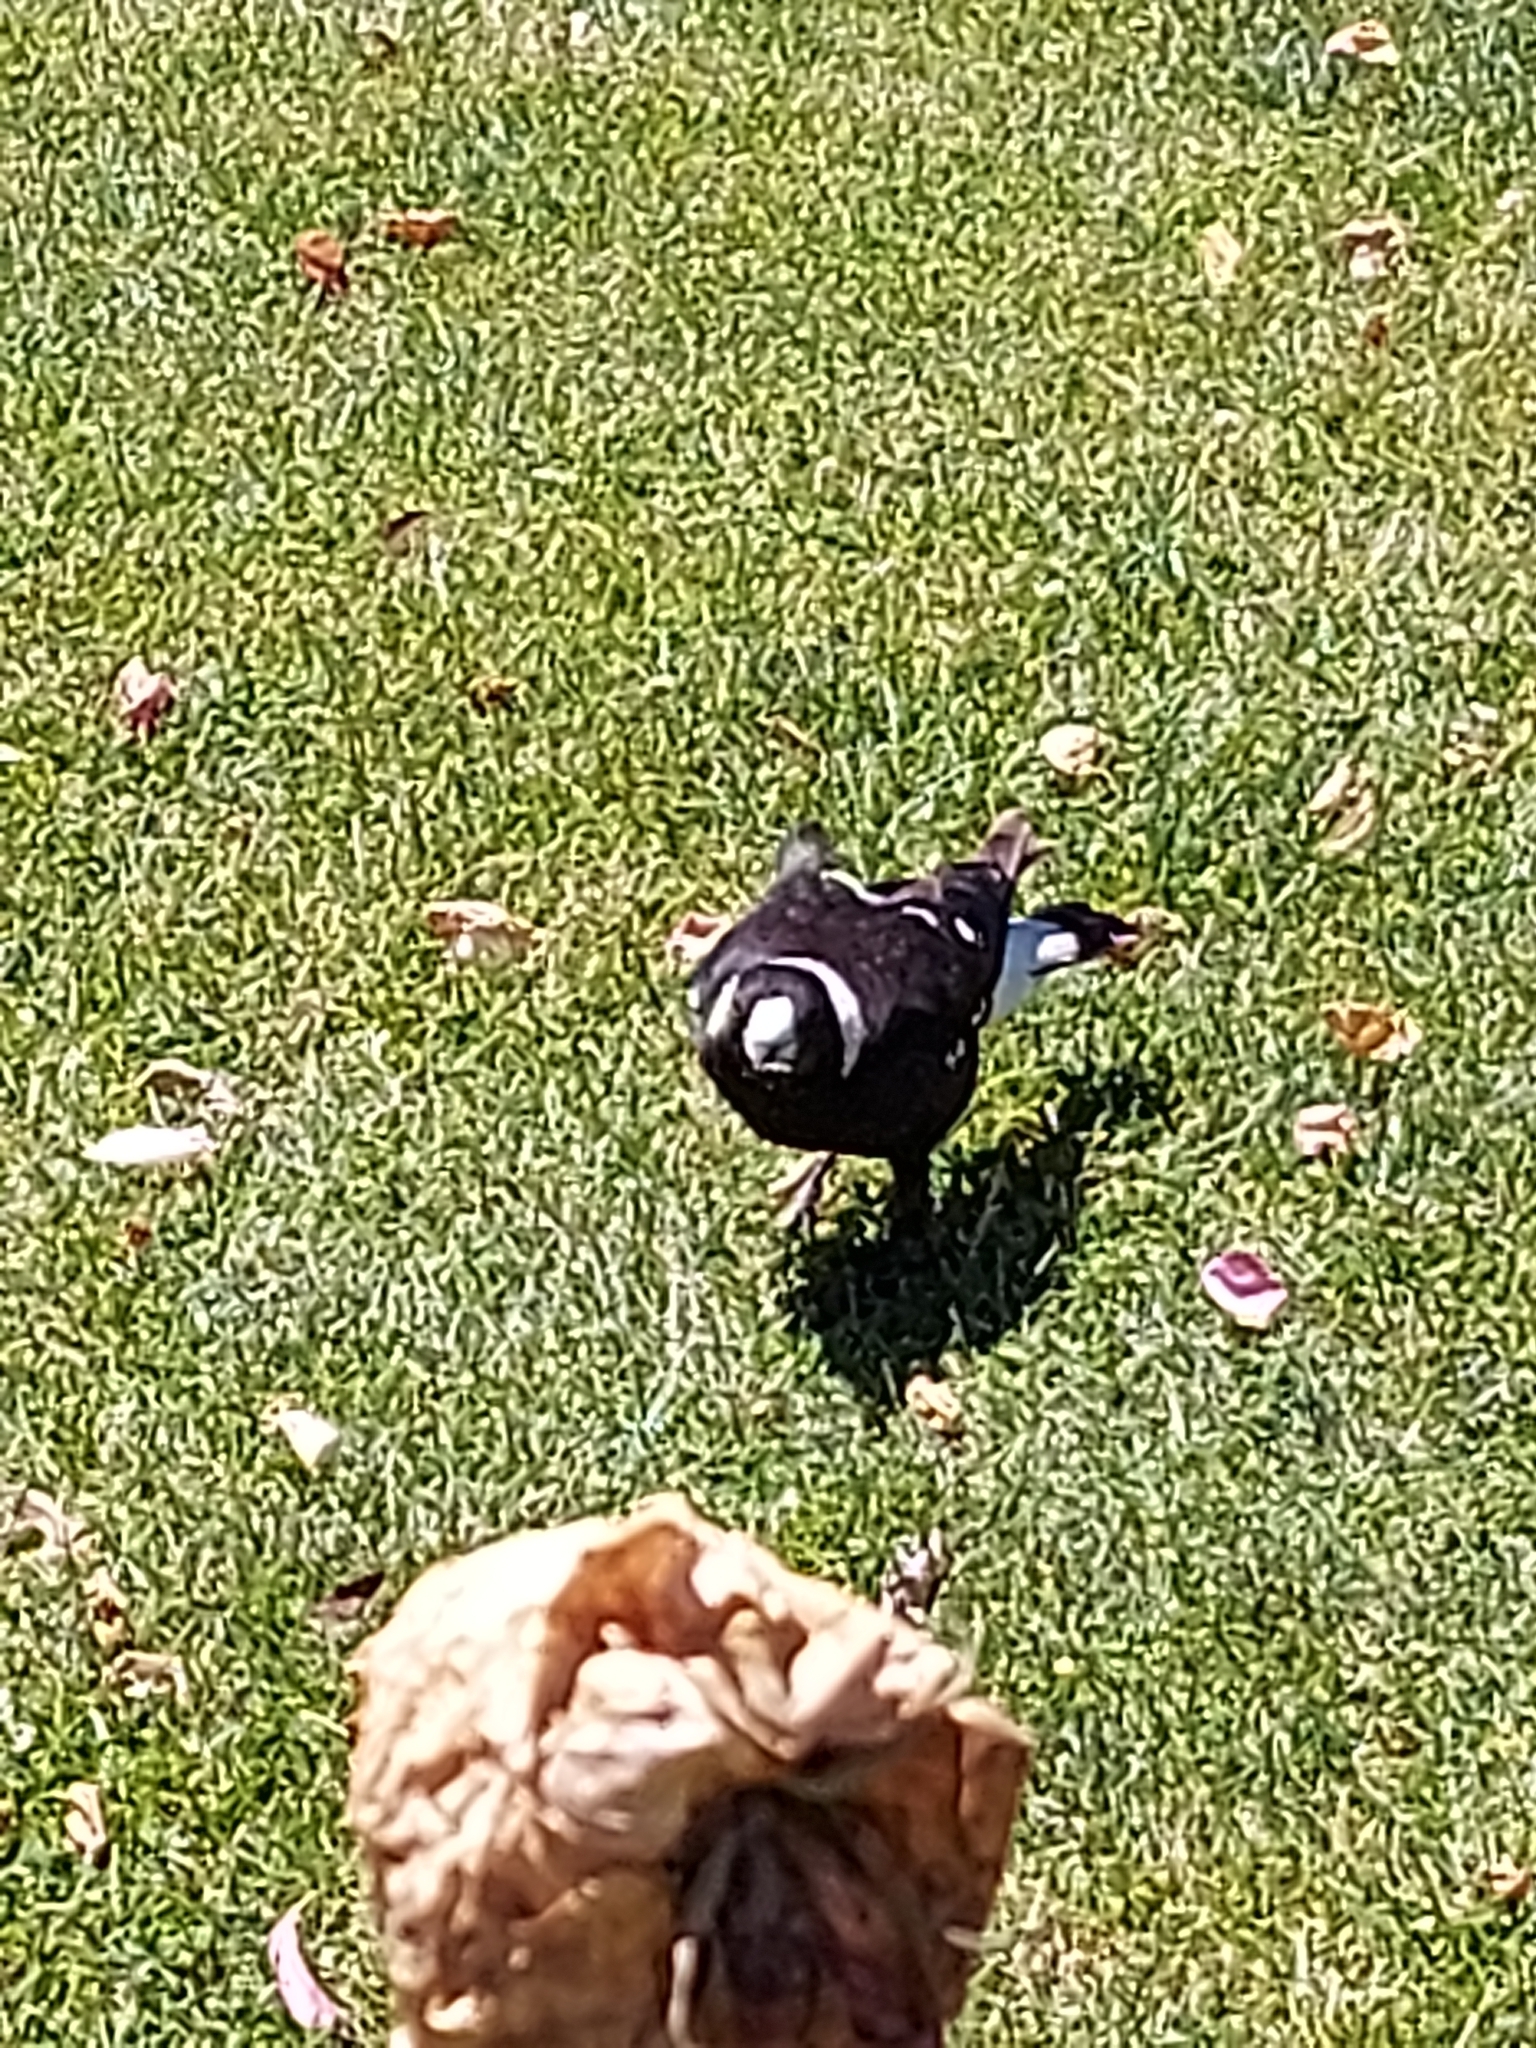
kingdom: Animalia
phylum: Chordata
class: Aves
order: Passeriformes
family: Cracticidae
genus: Gymnorhina
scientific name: Gymnorhina tibicen
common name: Australian magpie
